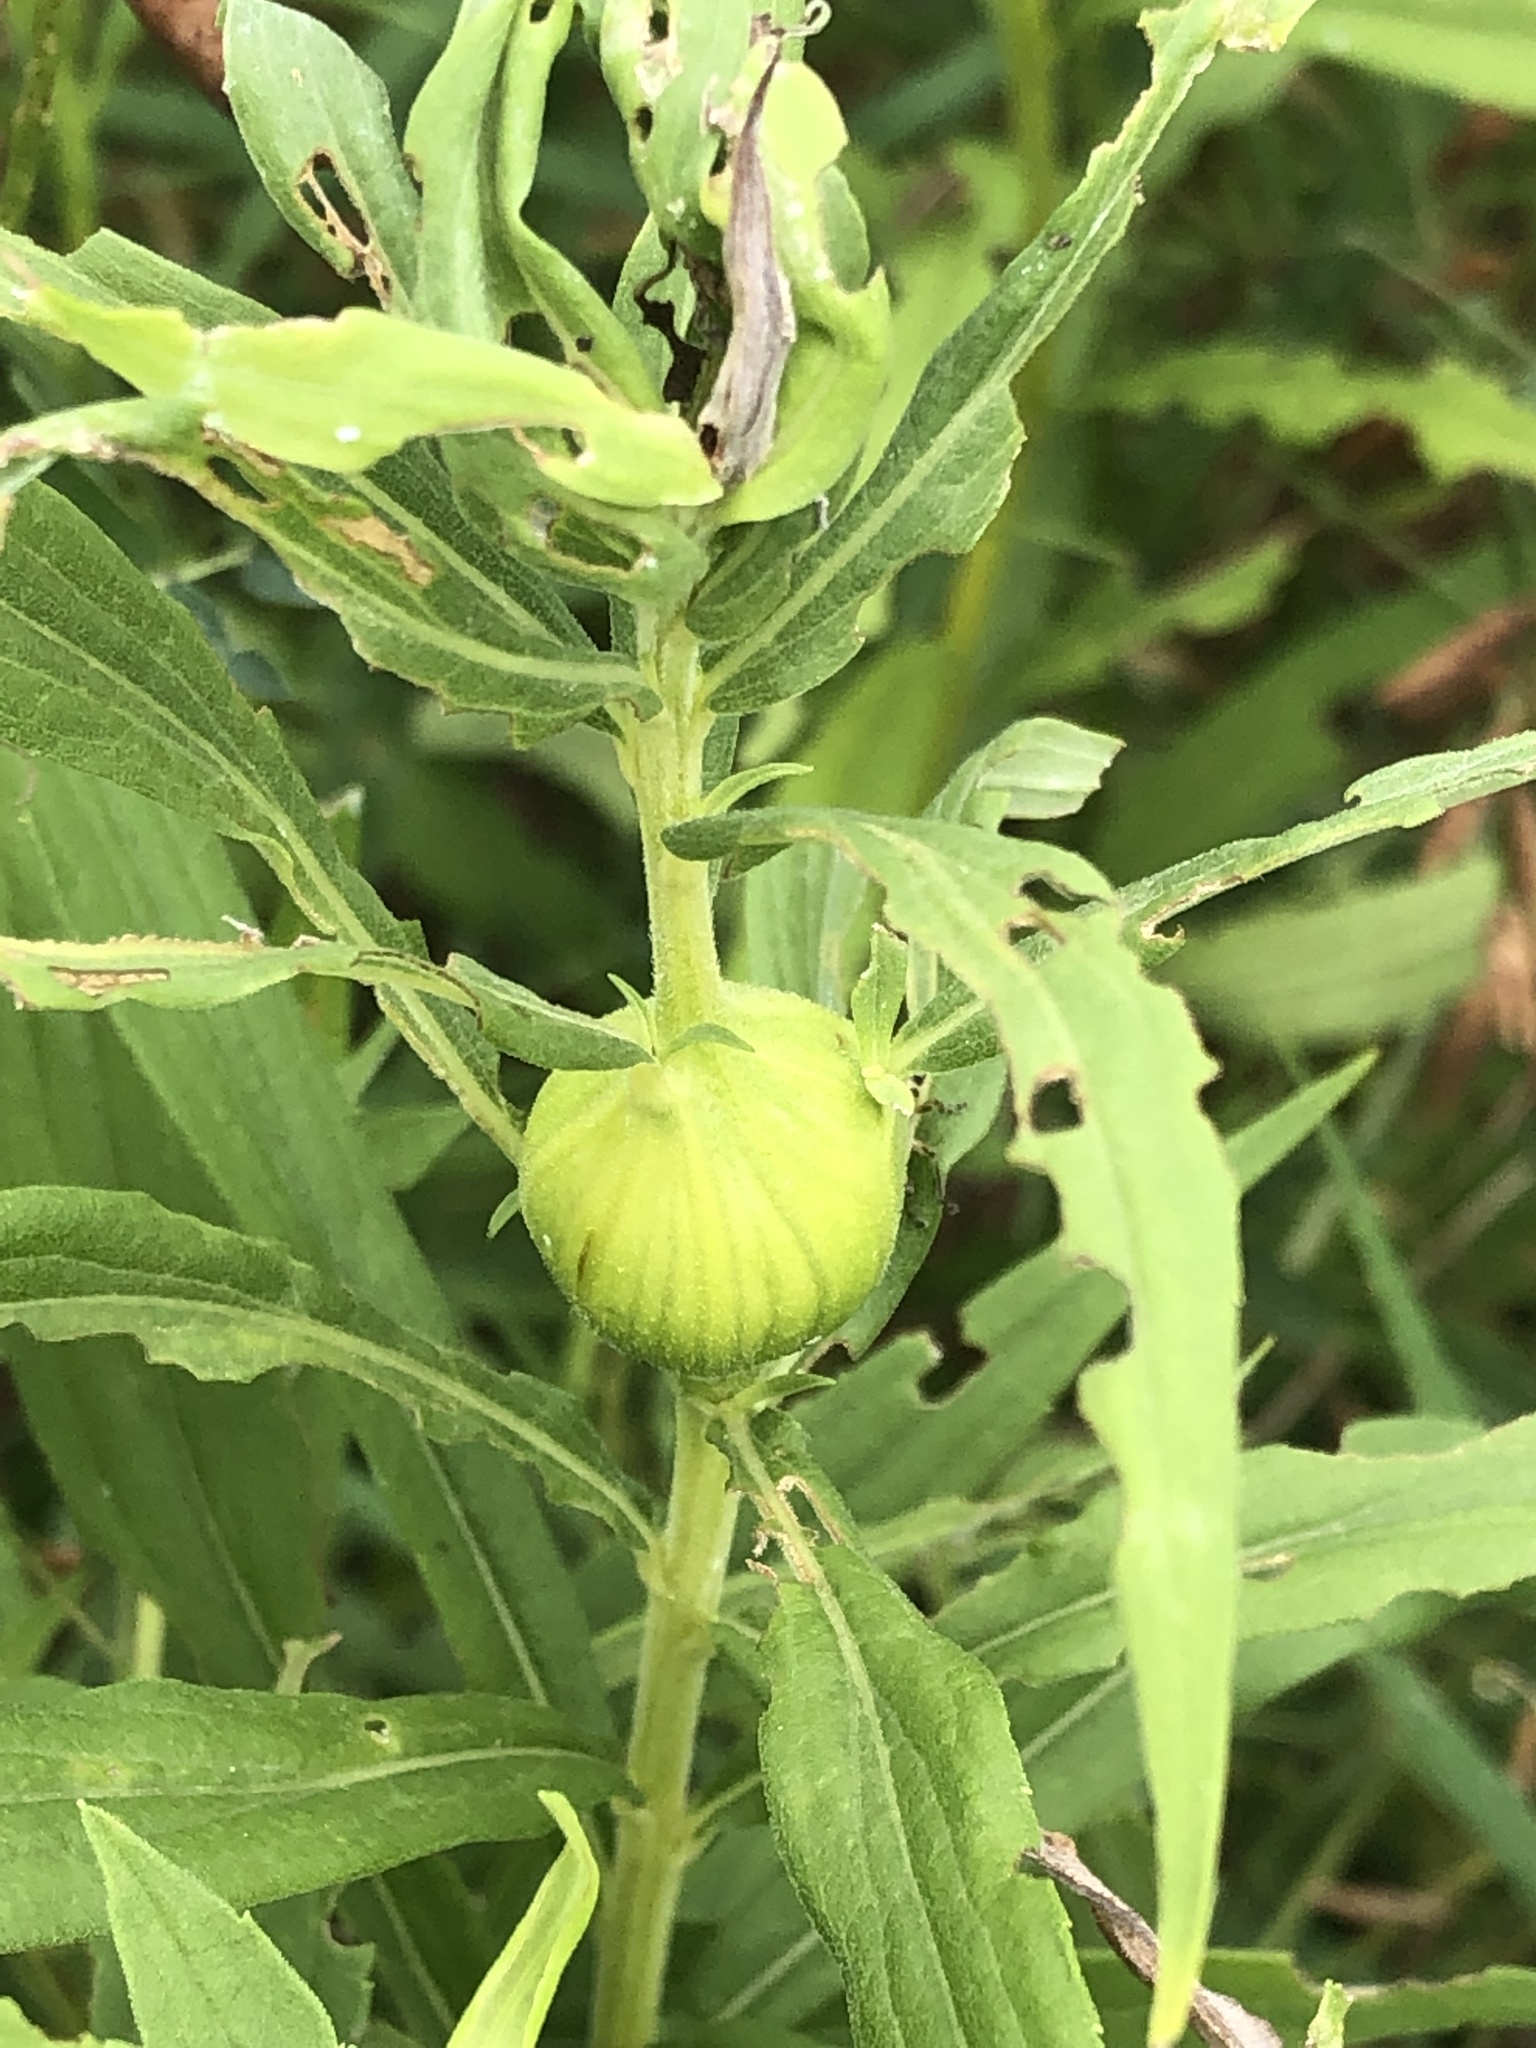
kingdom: Animalia
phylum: Arthropoda
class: Insecta
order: Diptera
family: Tephritidae
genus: Eurosta
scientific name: Eurosta solidaginis
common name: Goldenrod gall fly
